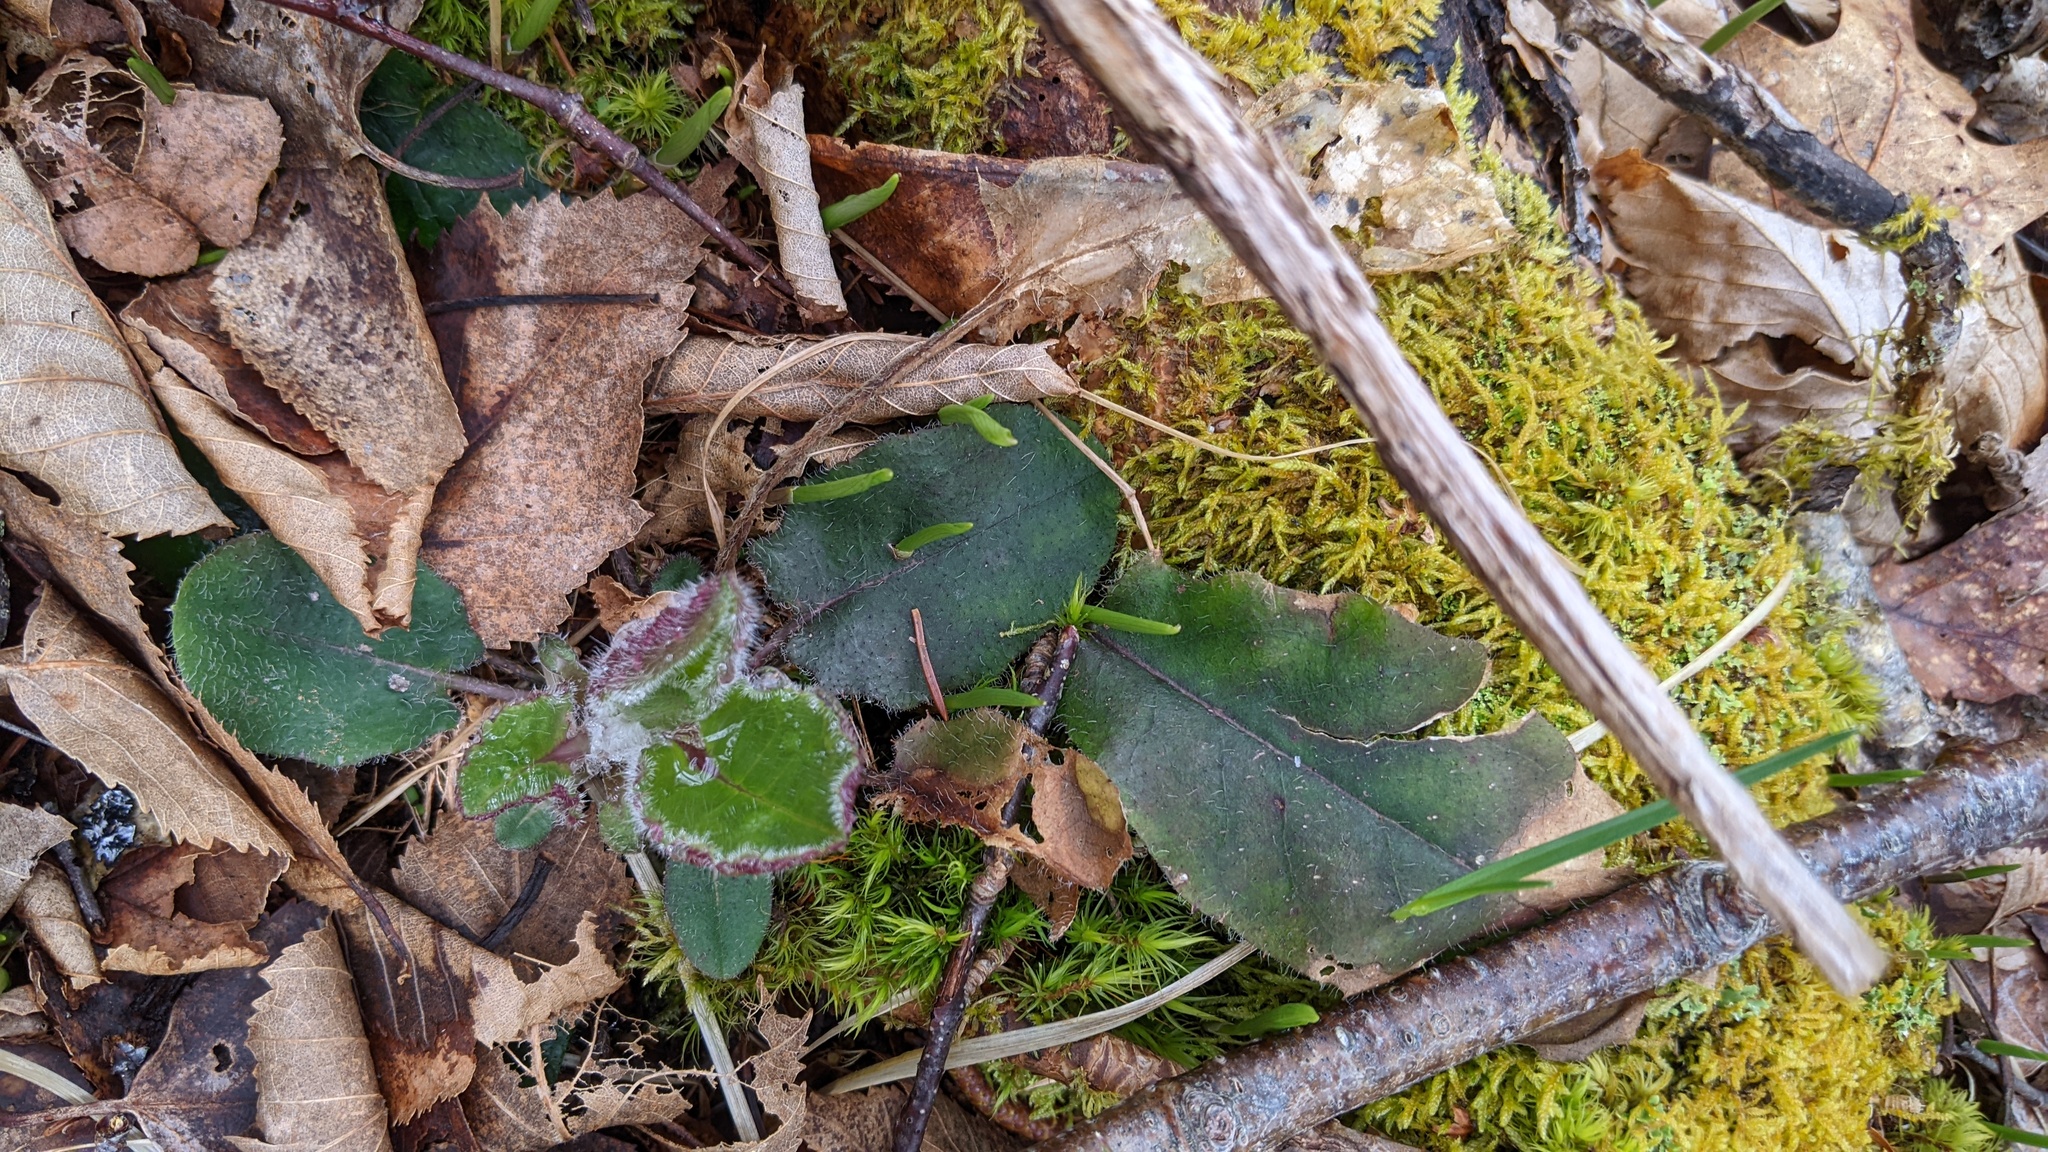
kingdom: Plantae
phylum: Tracheophyta
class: Magnoliopsida
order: Ericales
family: Ericaceae
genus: Epigaea
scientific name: Epigaea repens
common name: Gravelroot
